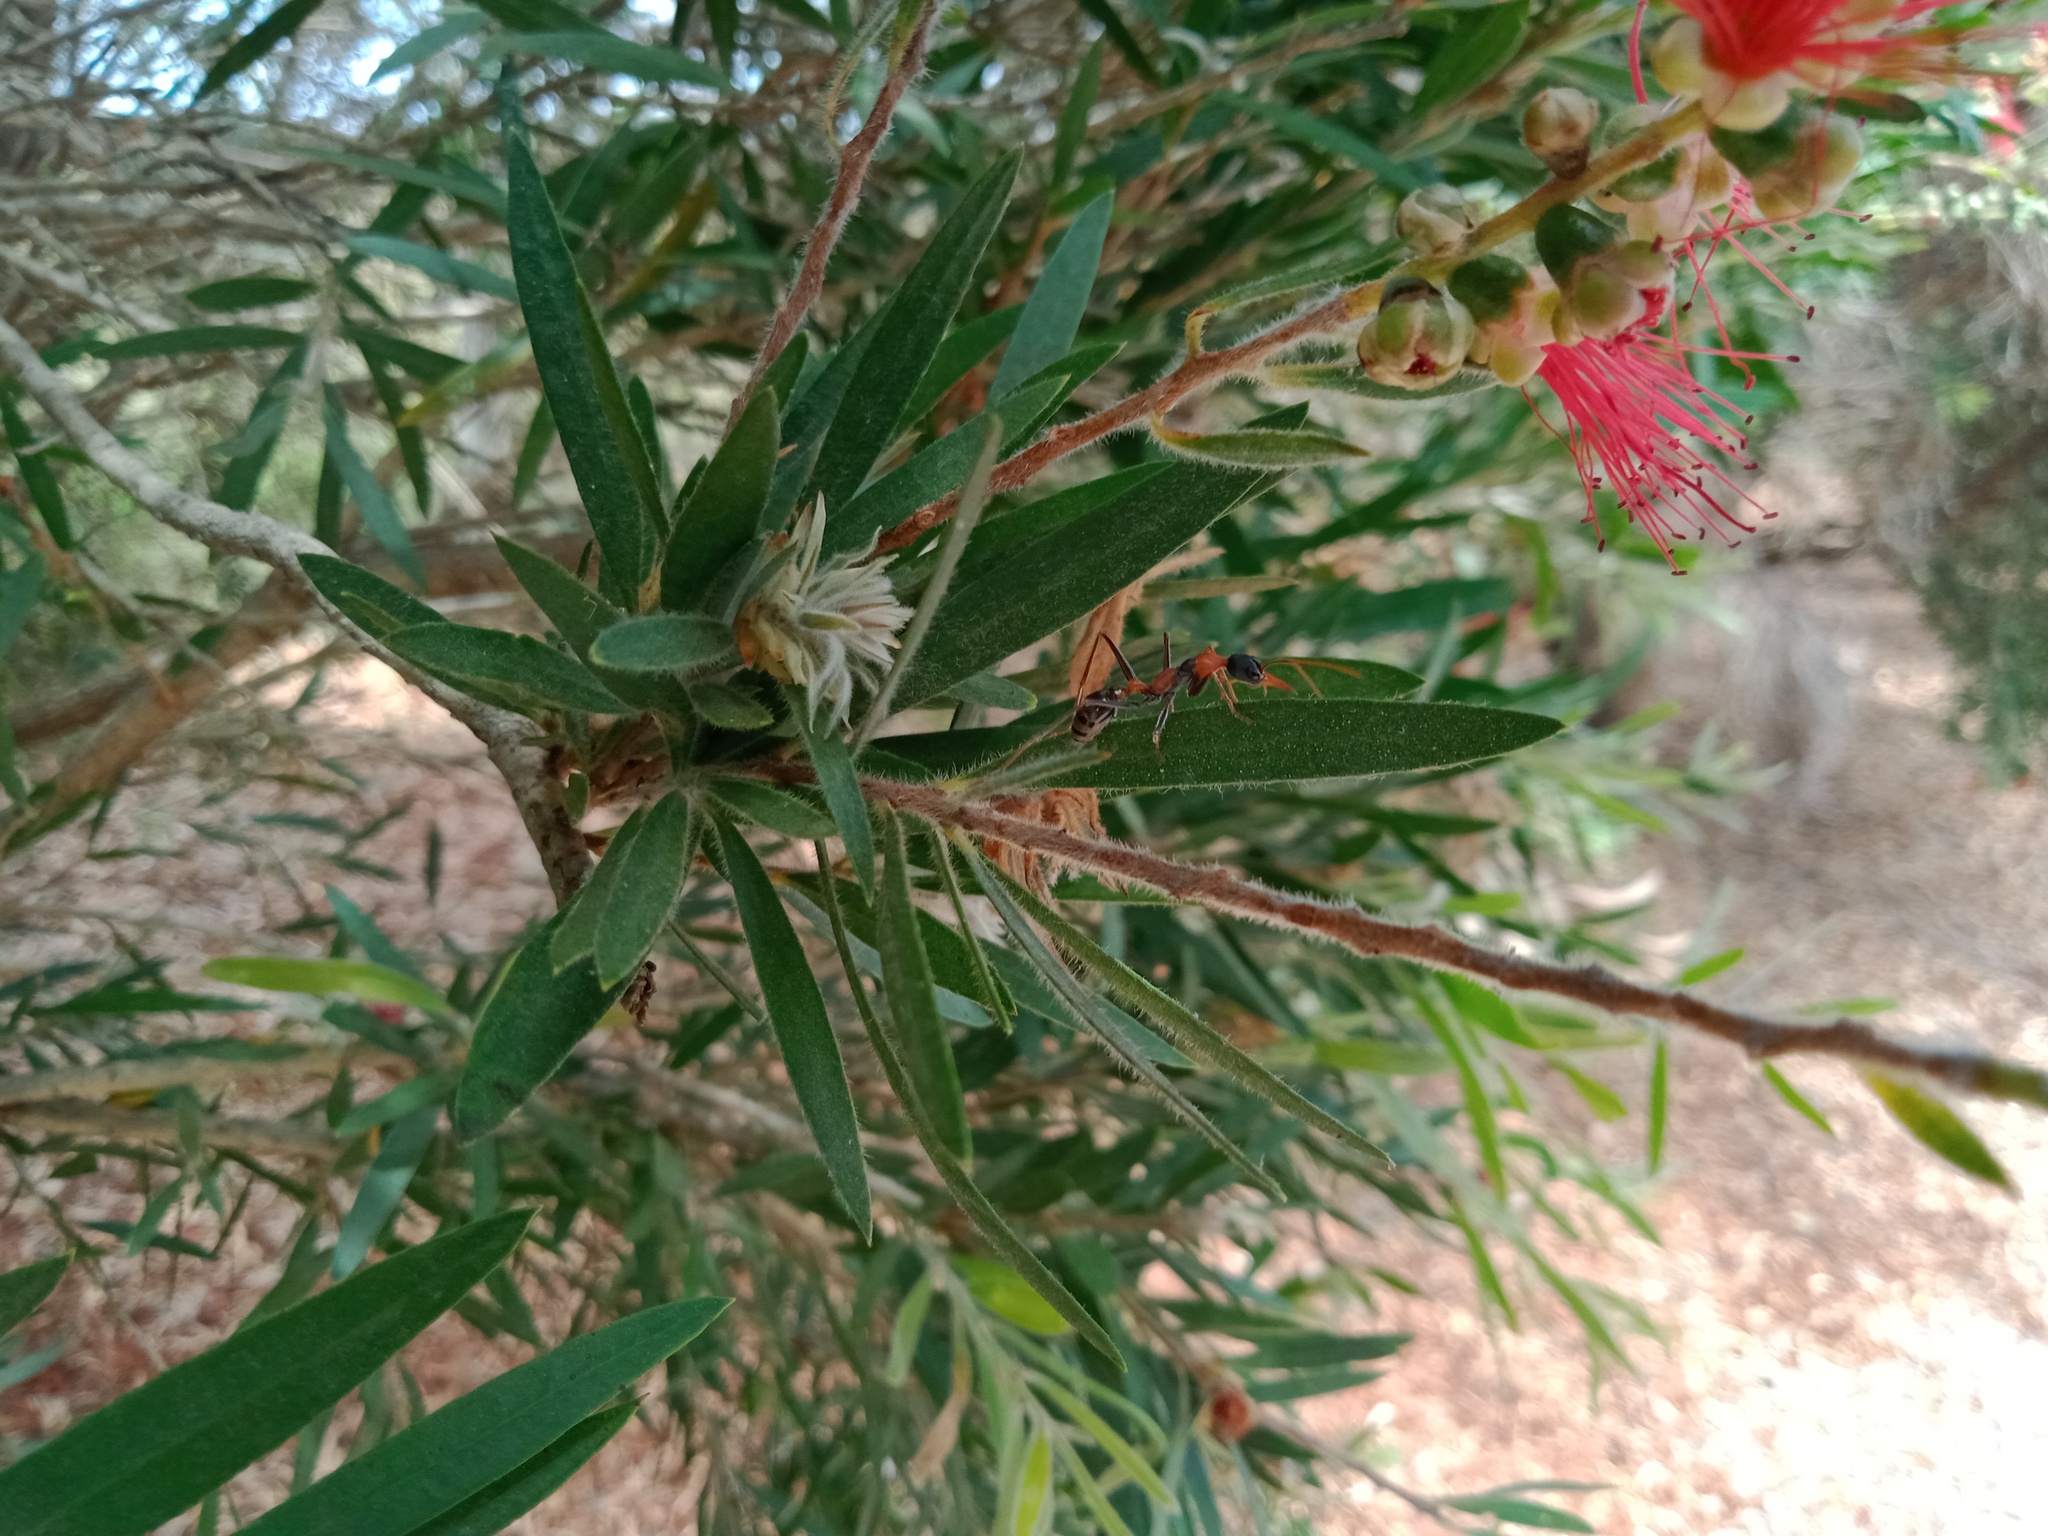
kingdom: Animalia
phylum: Arthropoda
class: Insecta
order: Hymenoptera
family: Formicidae
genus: Myrmecia
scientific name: Myrmecia nigrocincta
